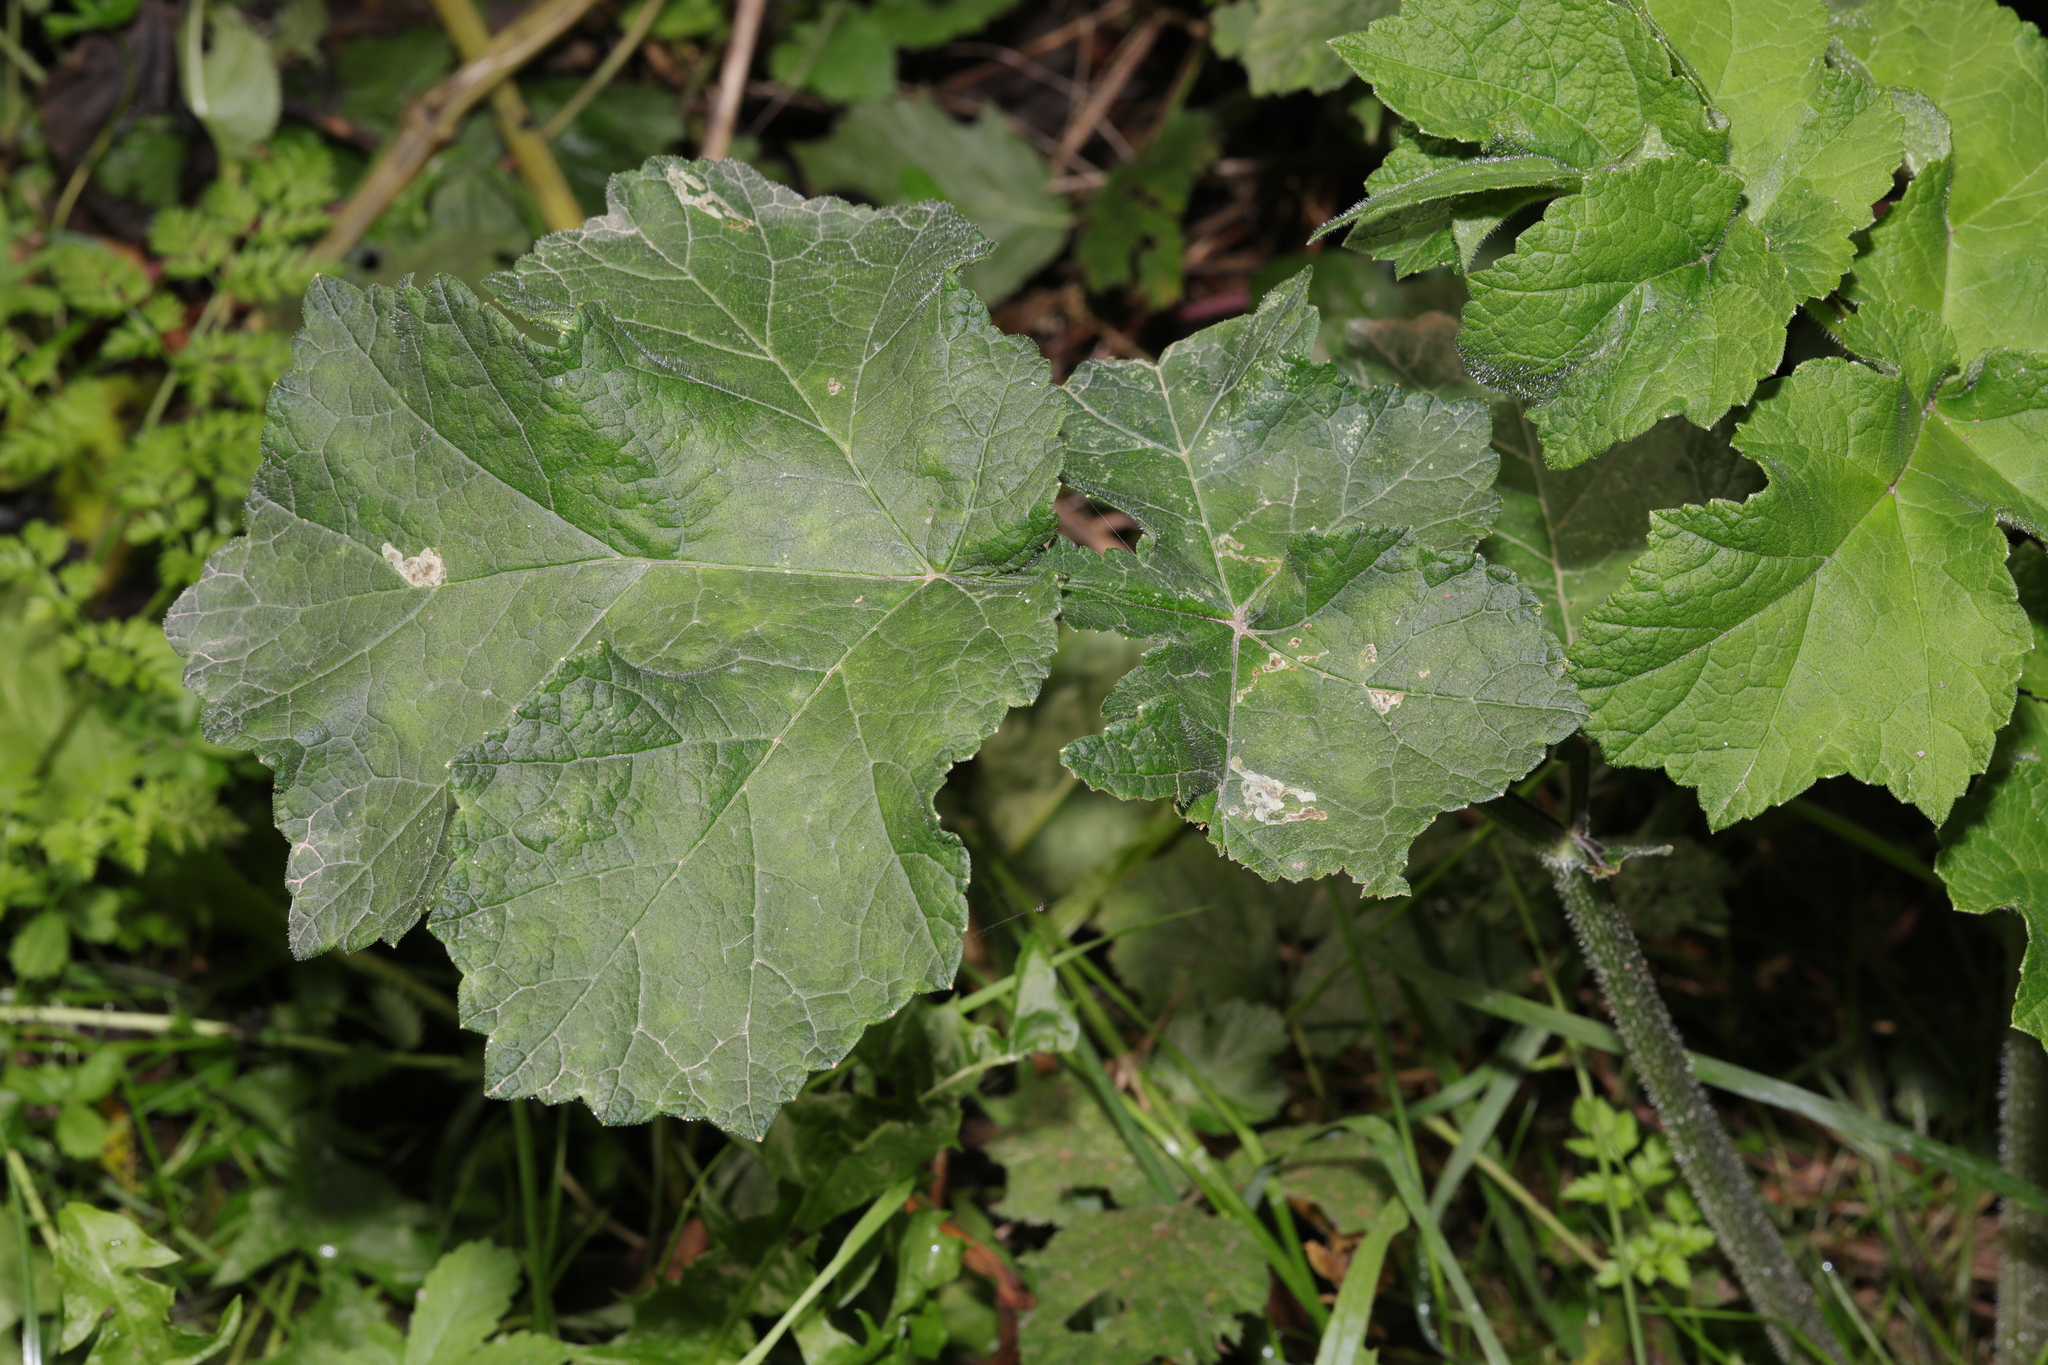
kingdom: Plantae
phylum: Tracheophyta
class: Magnoliopsida
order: Apiales
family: Apiaceae
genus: Heracleum
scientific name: Heracleum sphondylium
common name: Hogweed
